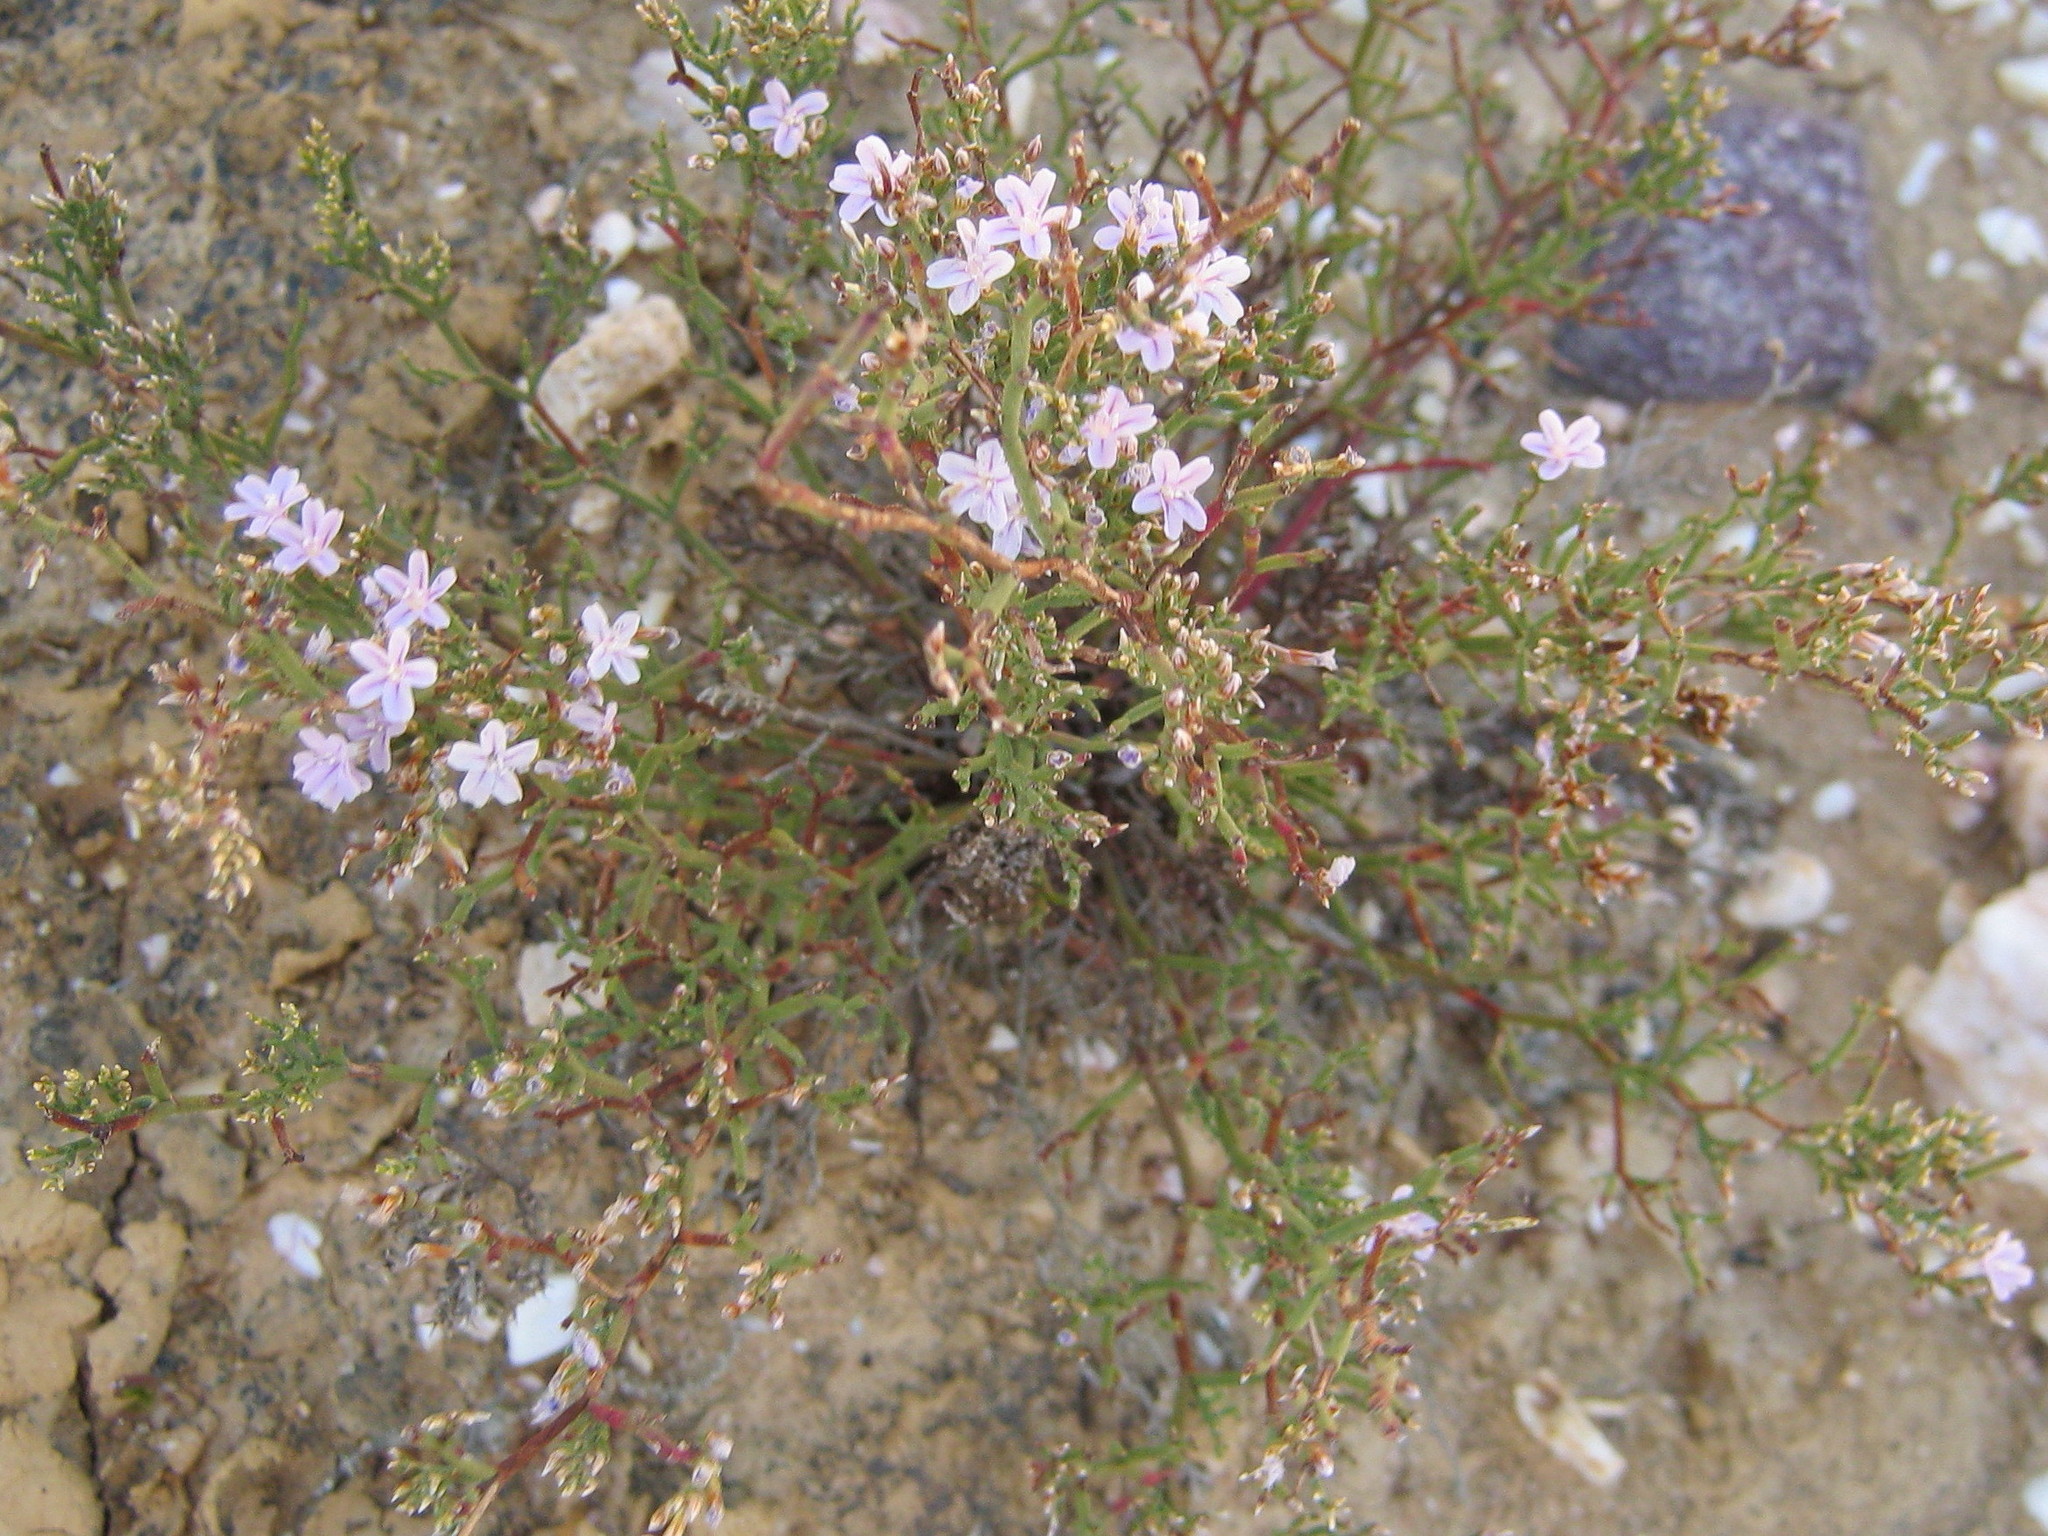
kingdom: Plantae
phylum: Tracheophyta
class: Magnoliopsida
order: Caryophyllales
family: Plumbaginaceae
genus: Limonium
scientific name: Limonium dregeanum
